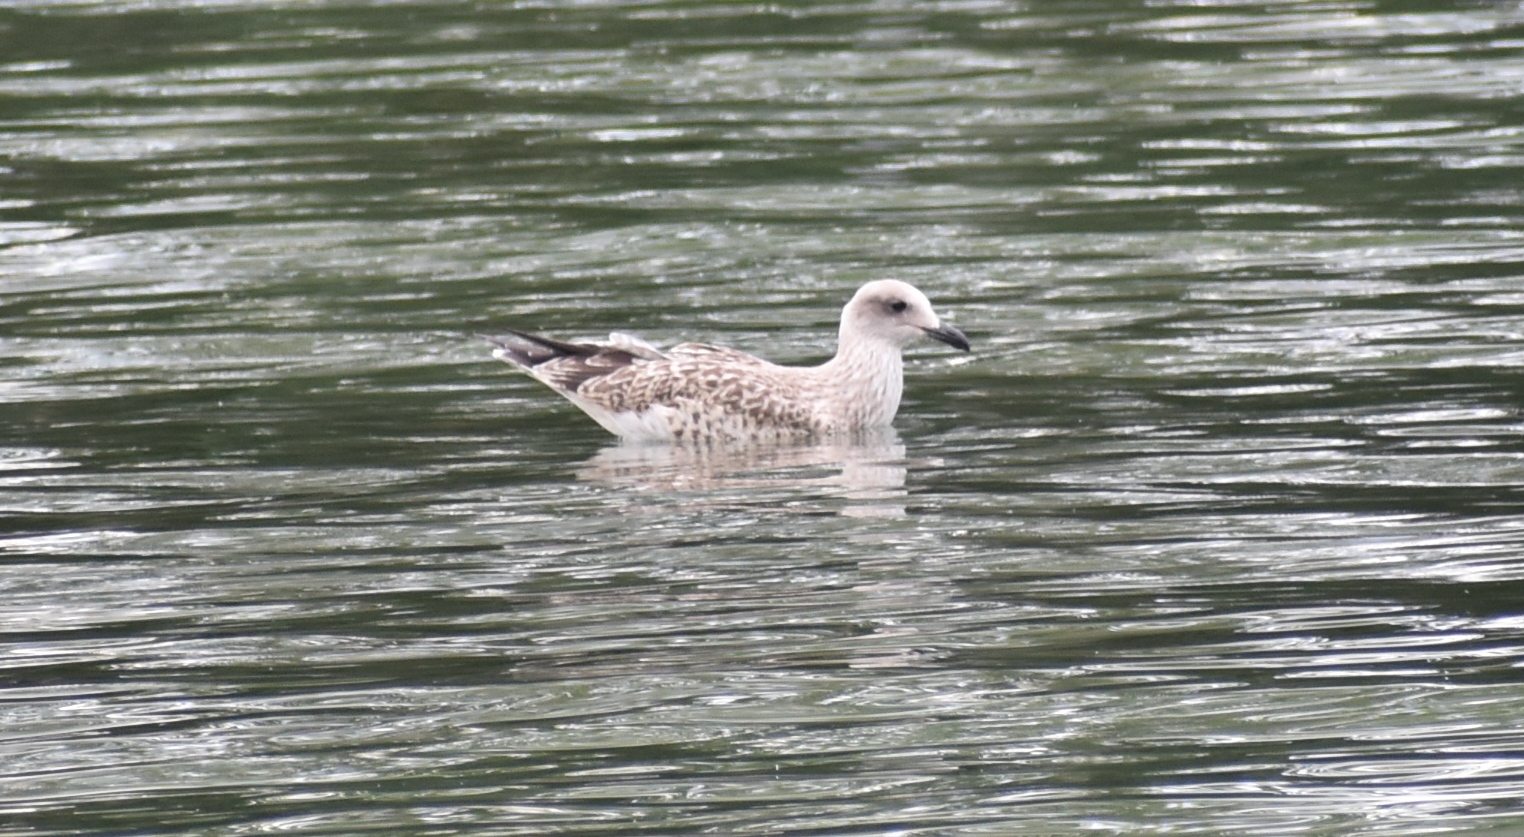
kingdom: Animalia
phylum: Chordata
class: Aves
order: Charadriiformes
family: Laridae
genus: Larus
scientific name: Larus michahellis
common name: Yellow-legged gull
